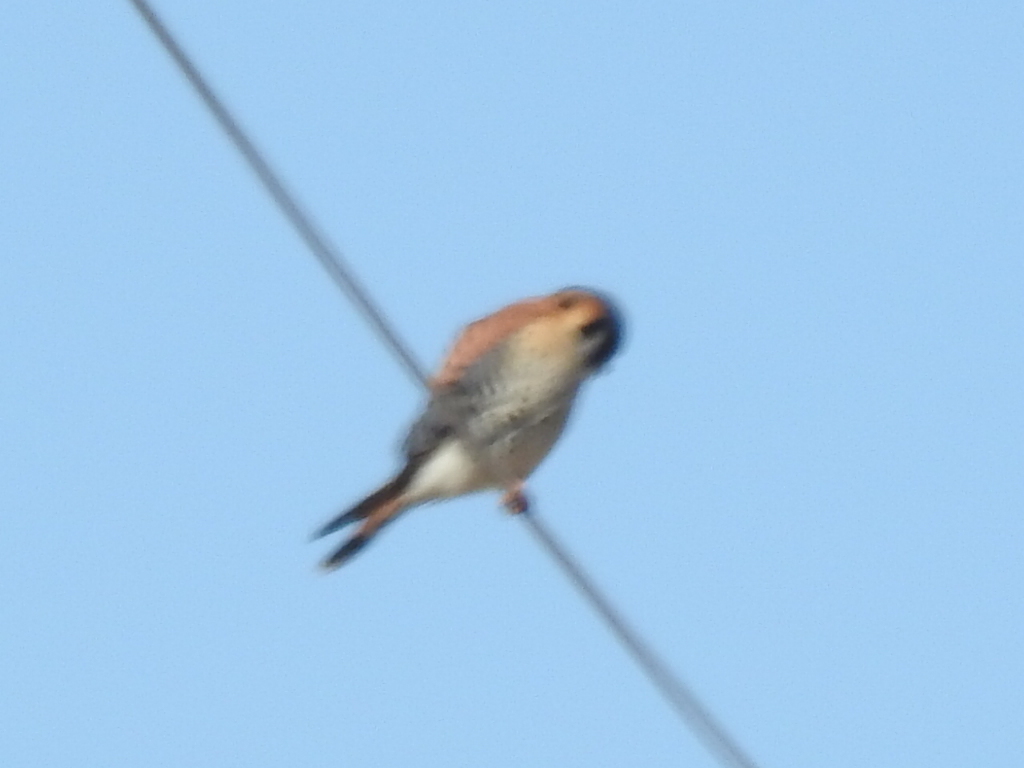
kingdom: Animalia
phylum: Chordata
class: Aves
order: Falconiformes
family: Falconidae
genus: Falco
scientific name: Falco sparverius
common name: American kestrel
